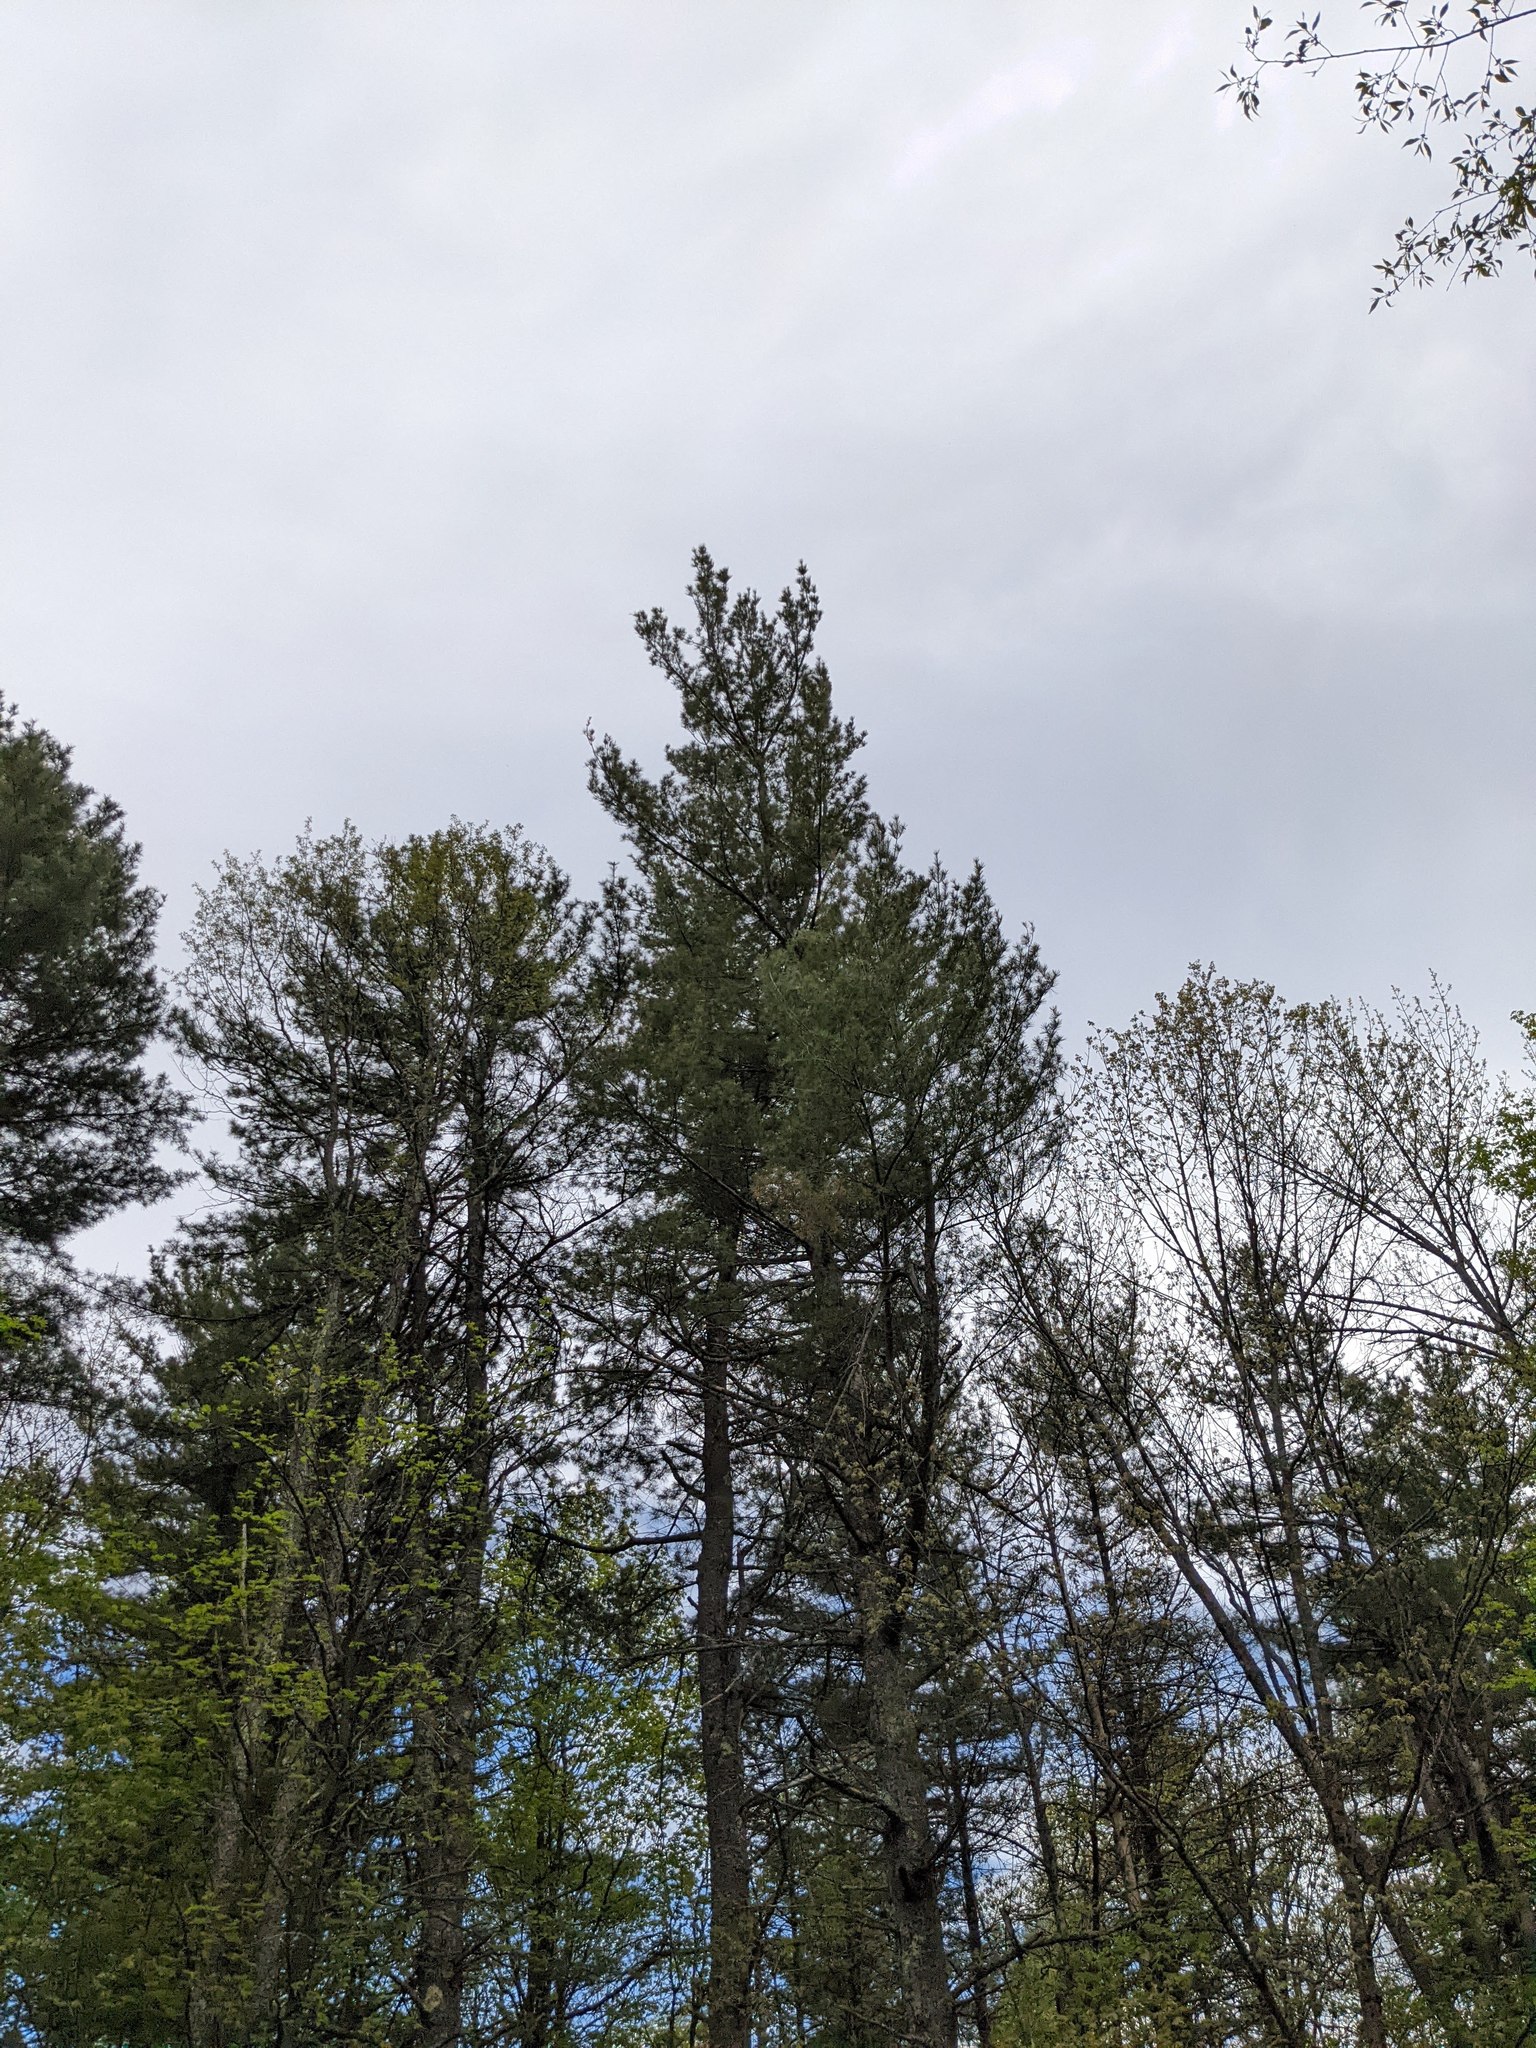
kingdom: Plantae
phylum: Tracheophyta
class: Pinopsida
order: Pinales
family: Pinaceae
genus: Pinus
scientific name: Pinus strobus
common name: Weymouth pine
